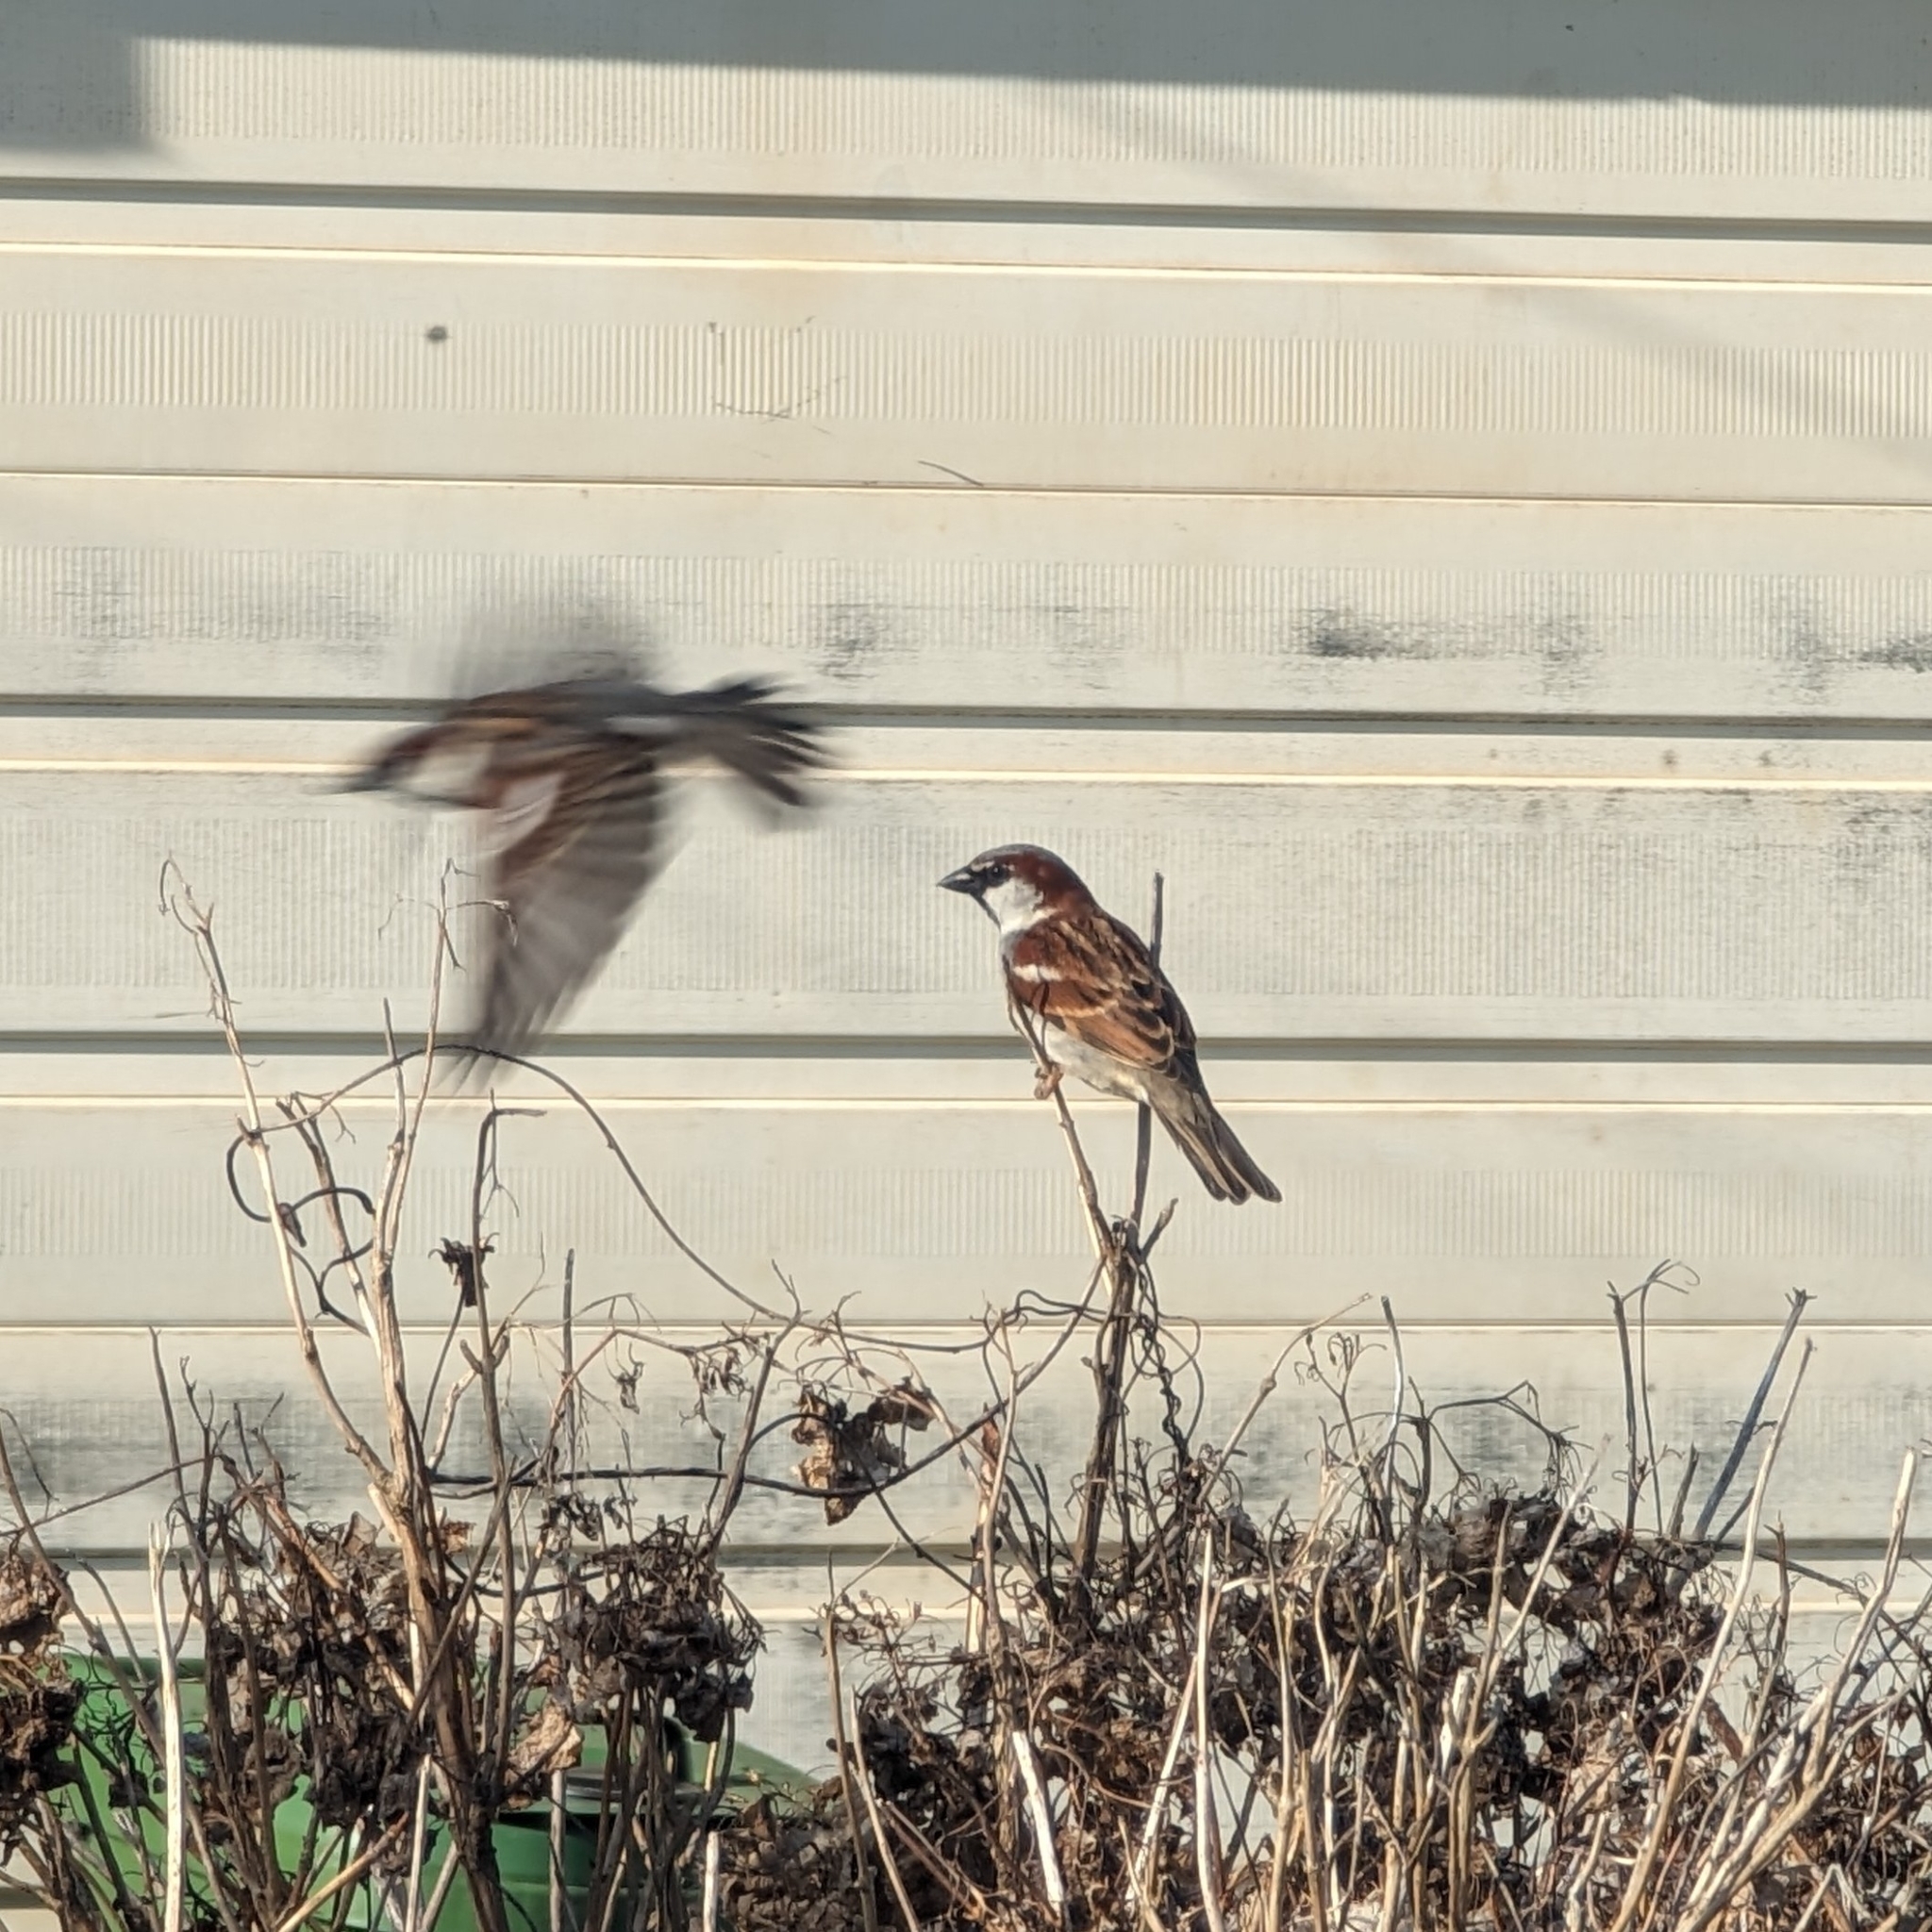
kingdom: Animalia
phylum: Chordata
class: Aves
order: Passeriformes
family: Passeridae
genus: Passer
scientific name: Passer domesticus
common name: House sparrow
